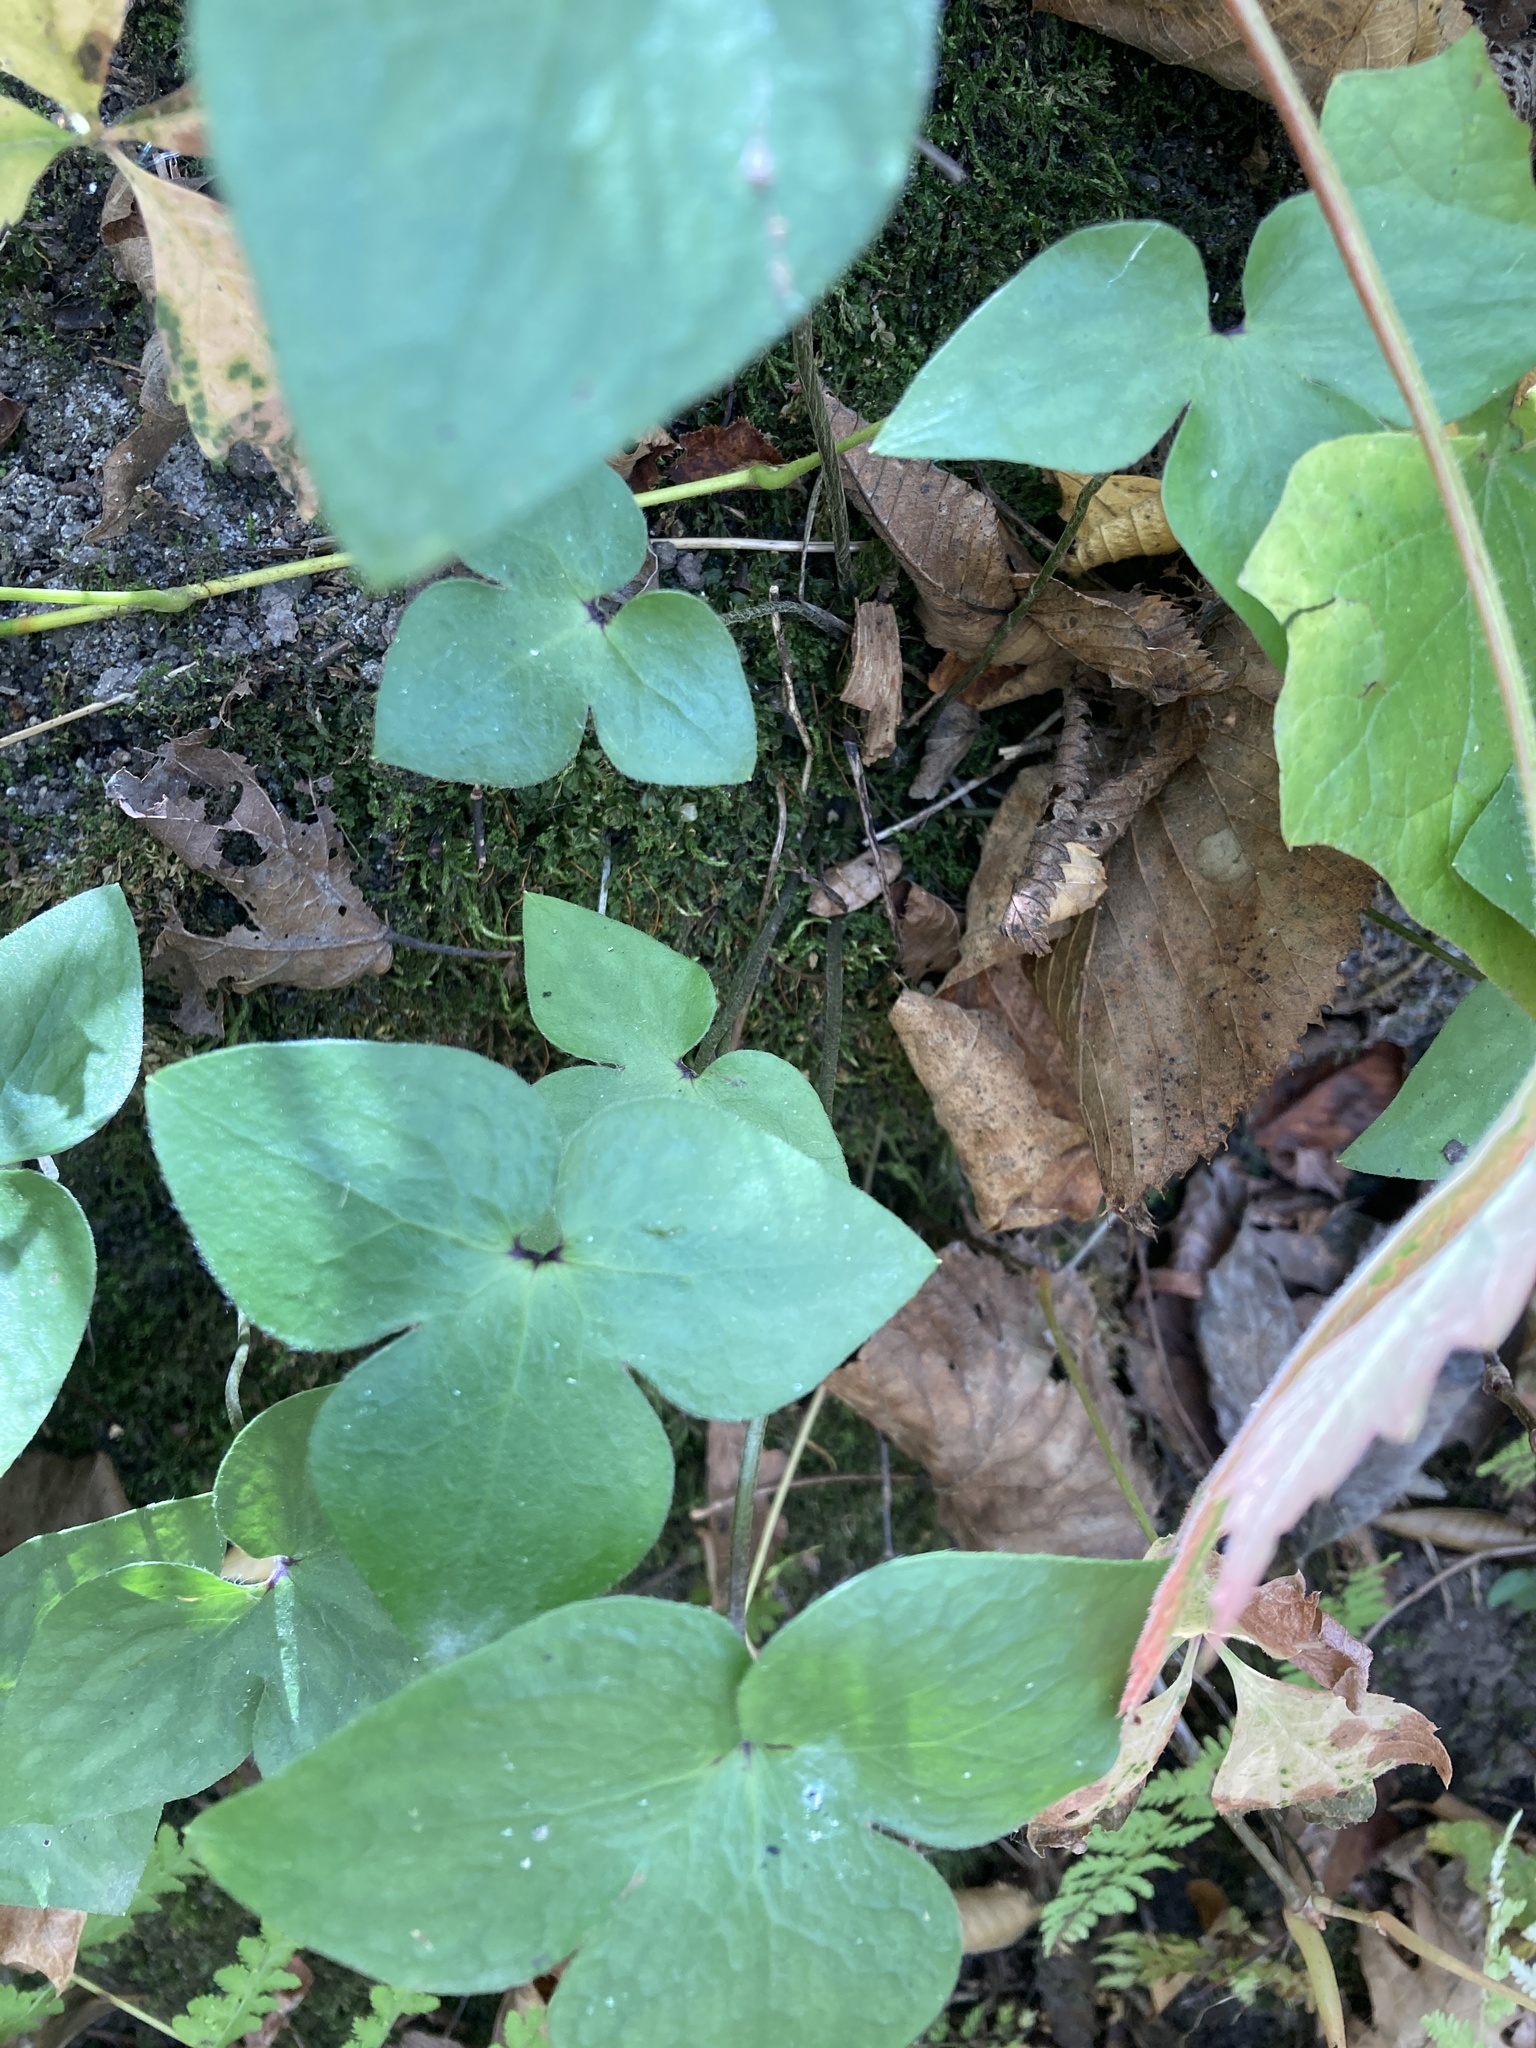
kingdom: Plantae
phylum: Tracheophyta
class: Magnoliopsida
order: Ranunculales
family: Ranunculaceae
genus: Hepatica
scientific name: Hepatica acutiloba
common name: Sharp-lobed hepatica
